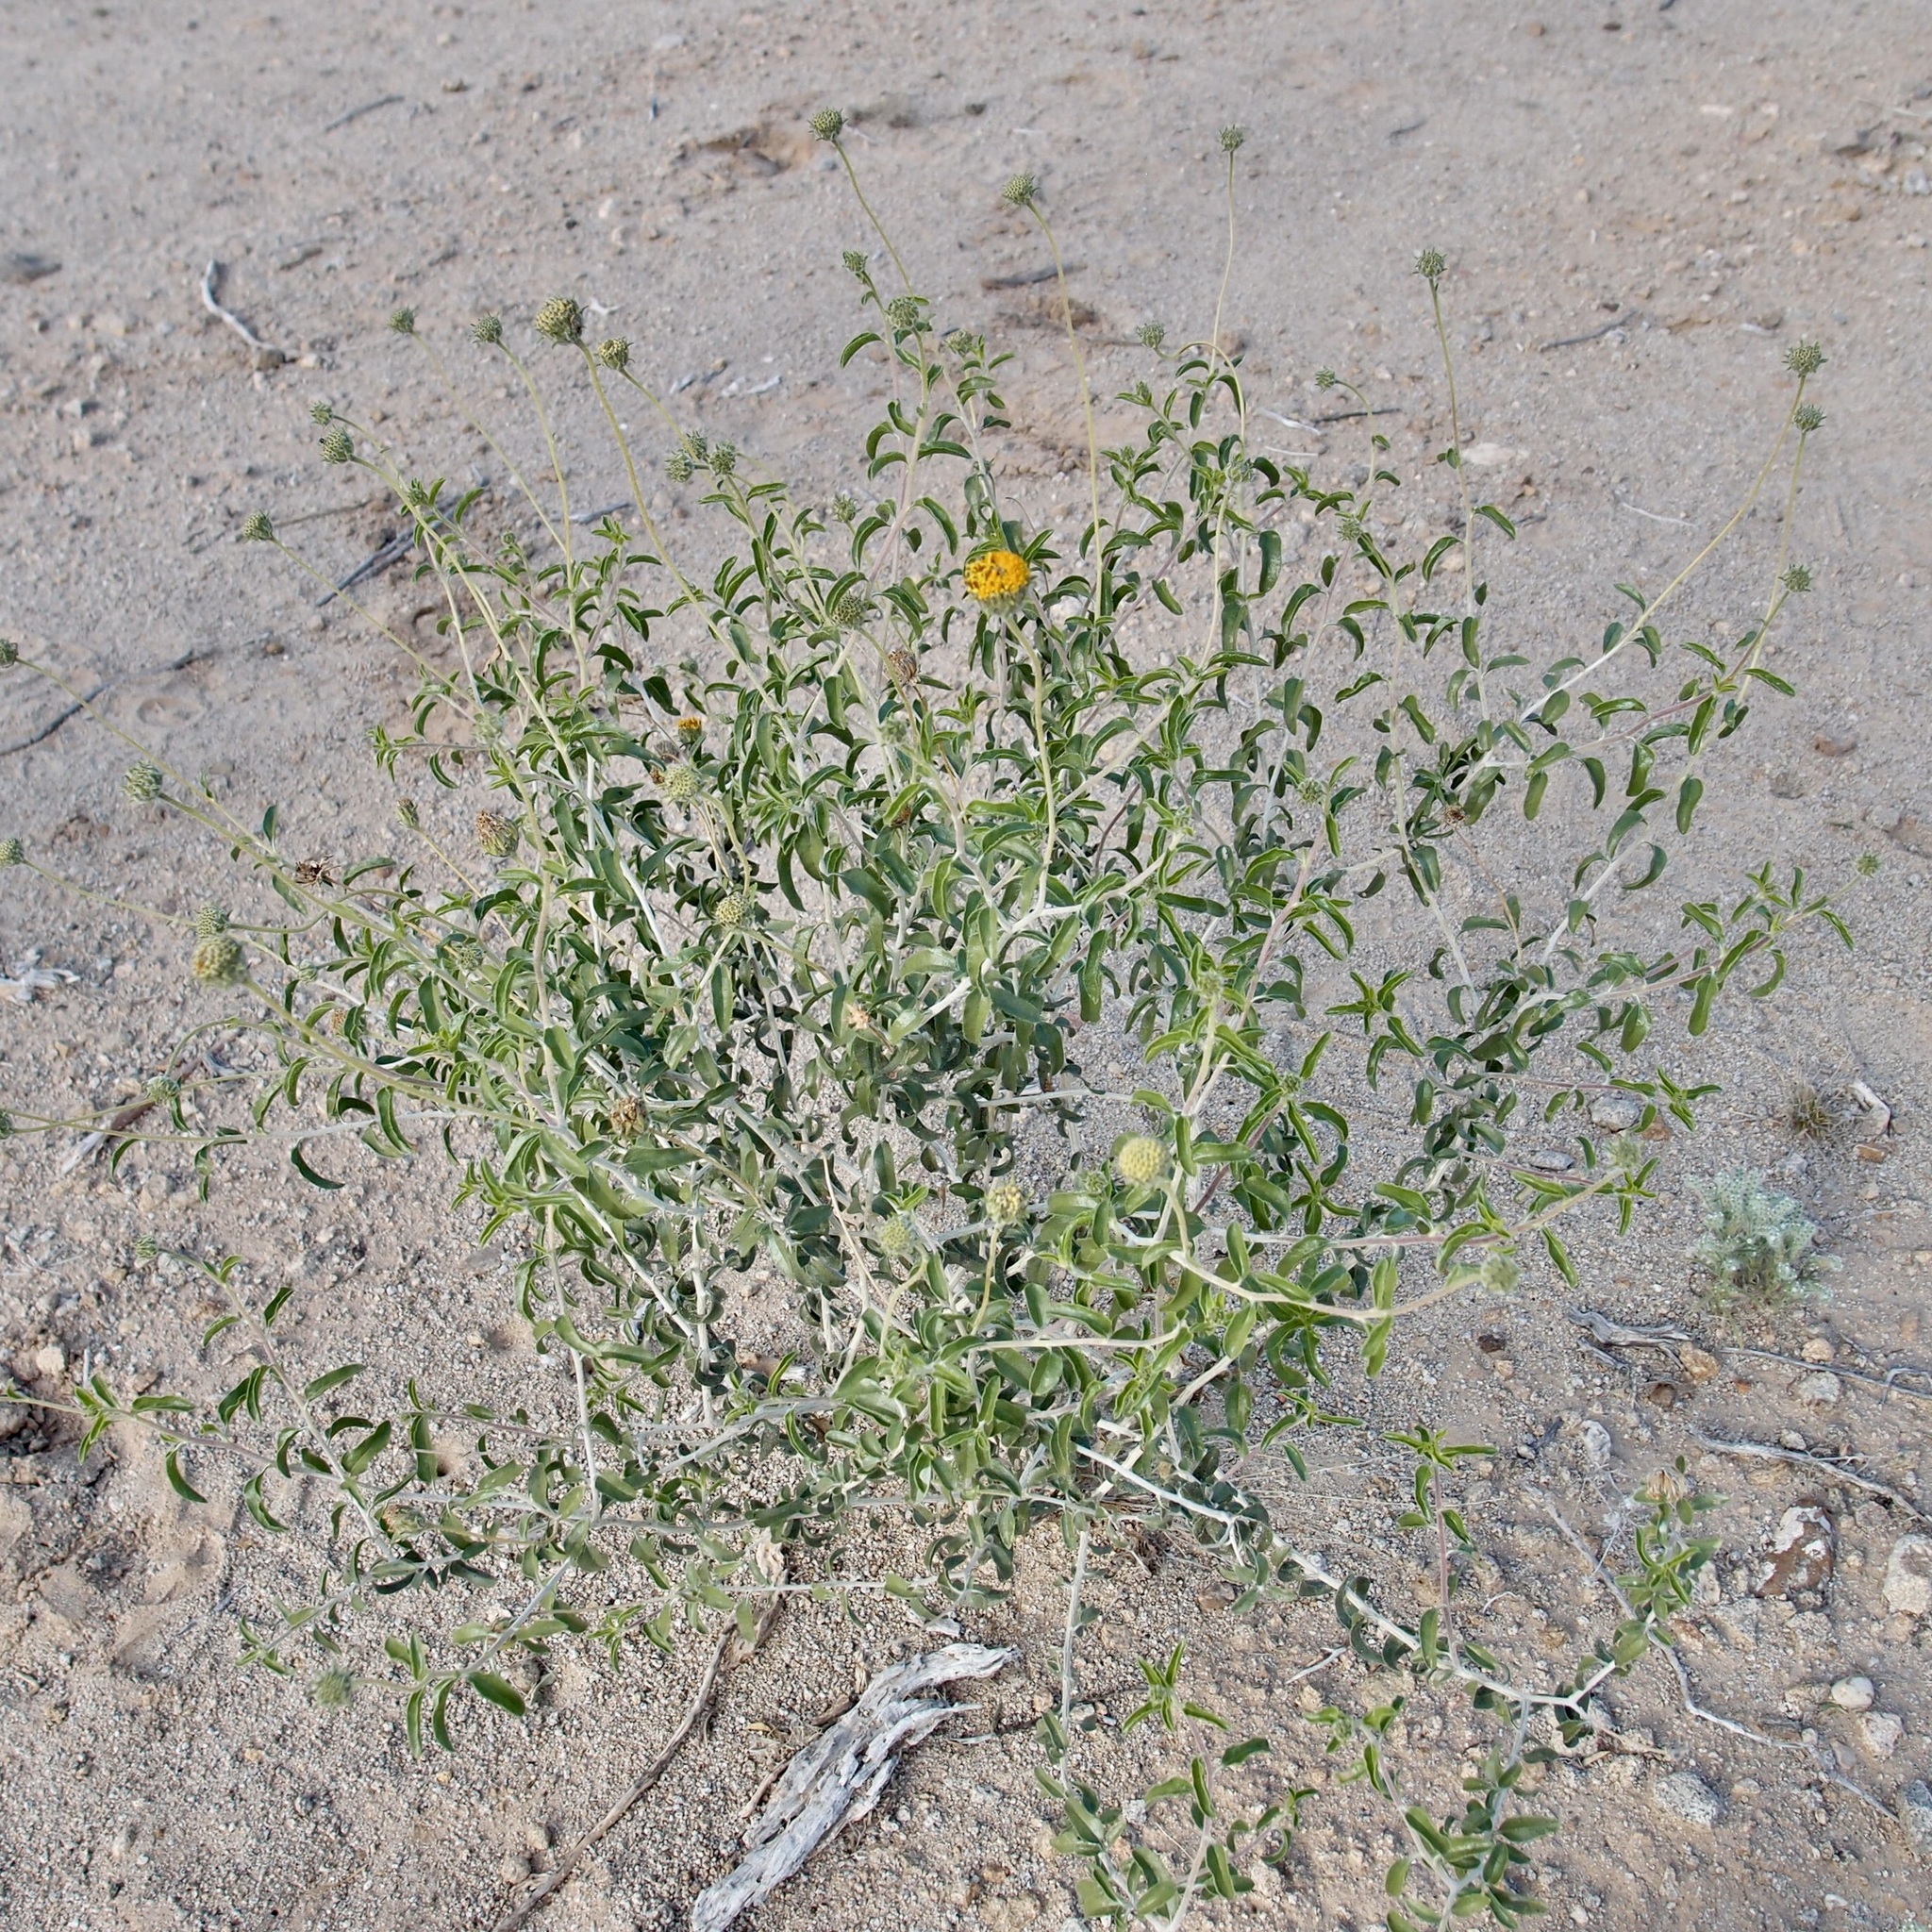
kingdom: Plantae
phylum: Tracheophyta
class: Magnoliopsida
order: Asterales
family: Asteraceae
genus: Encelia
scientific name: Encelia frutescens
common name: Bush encelia
